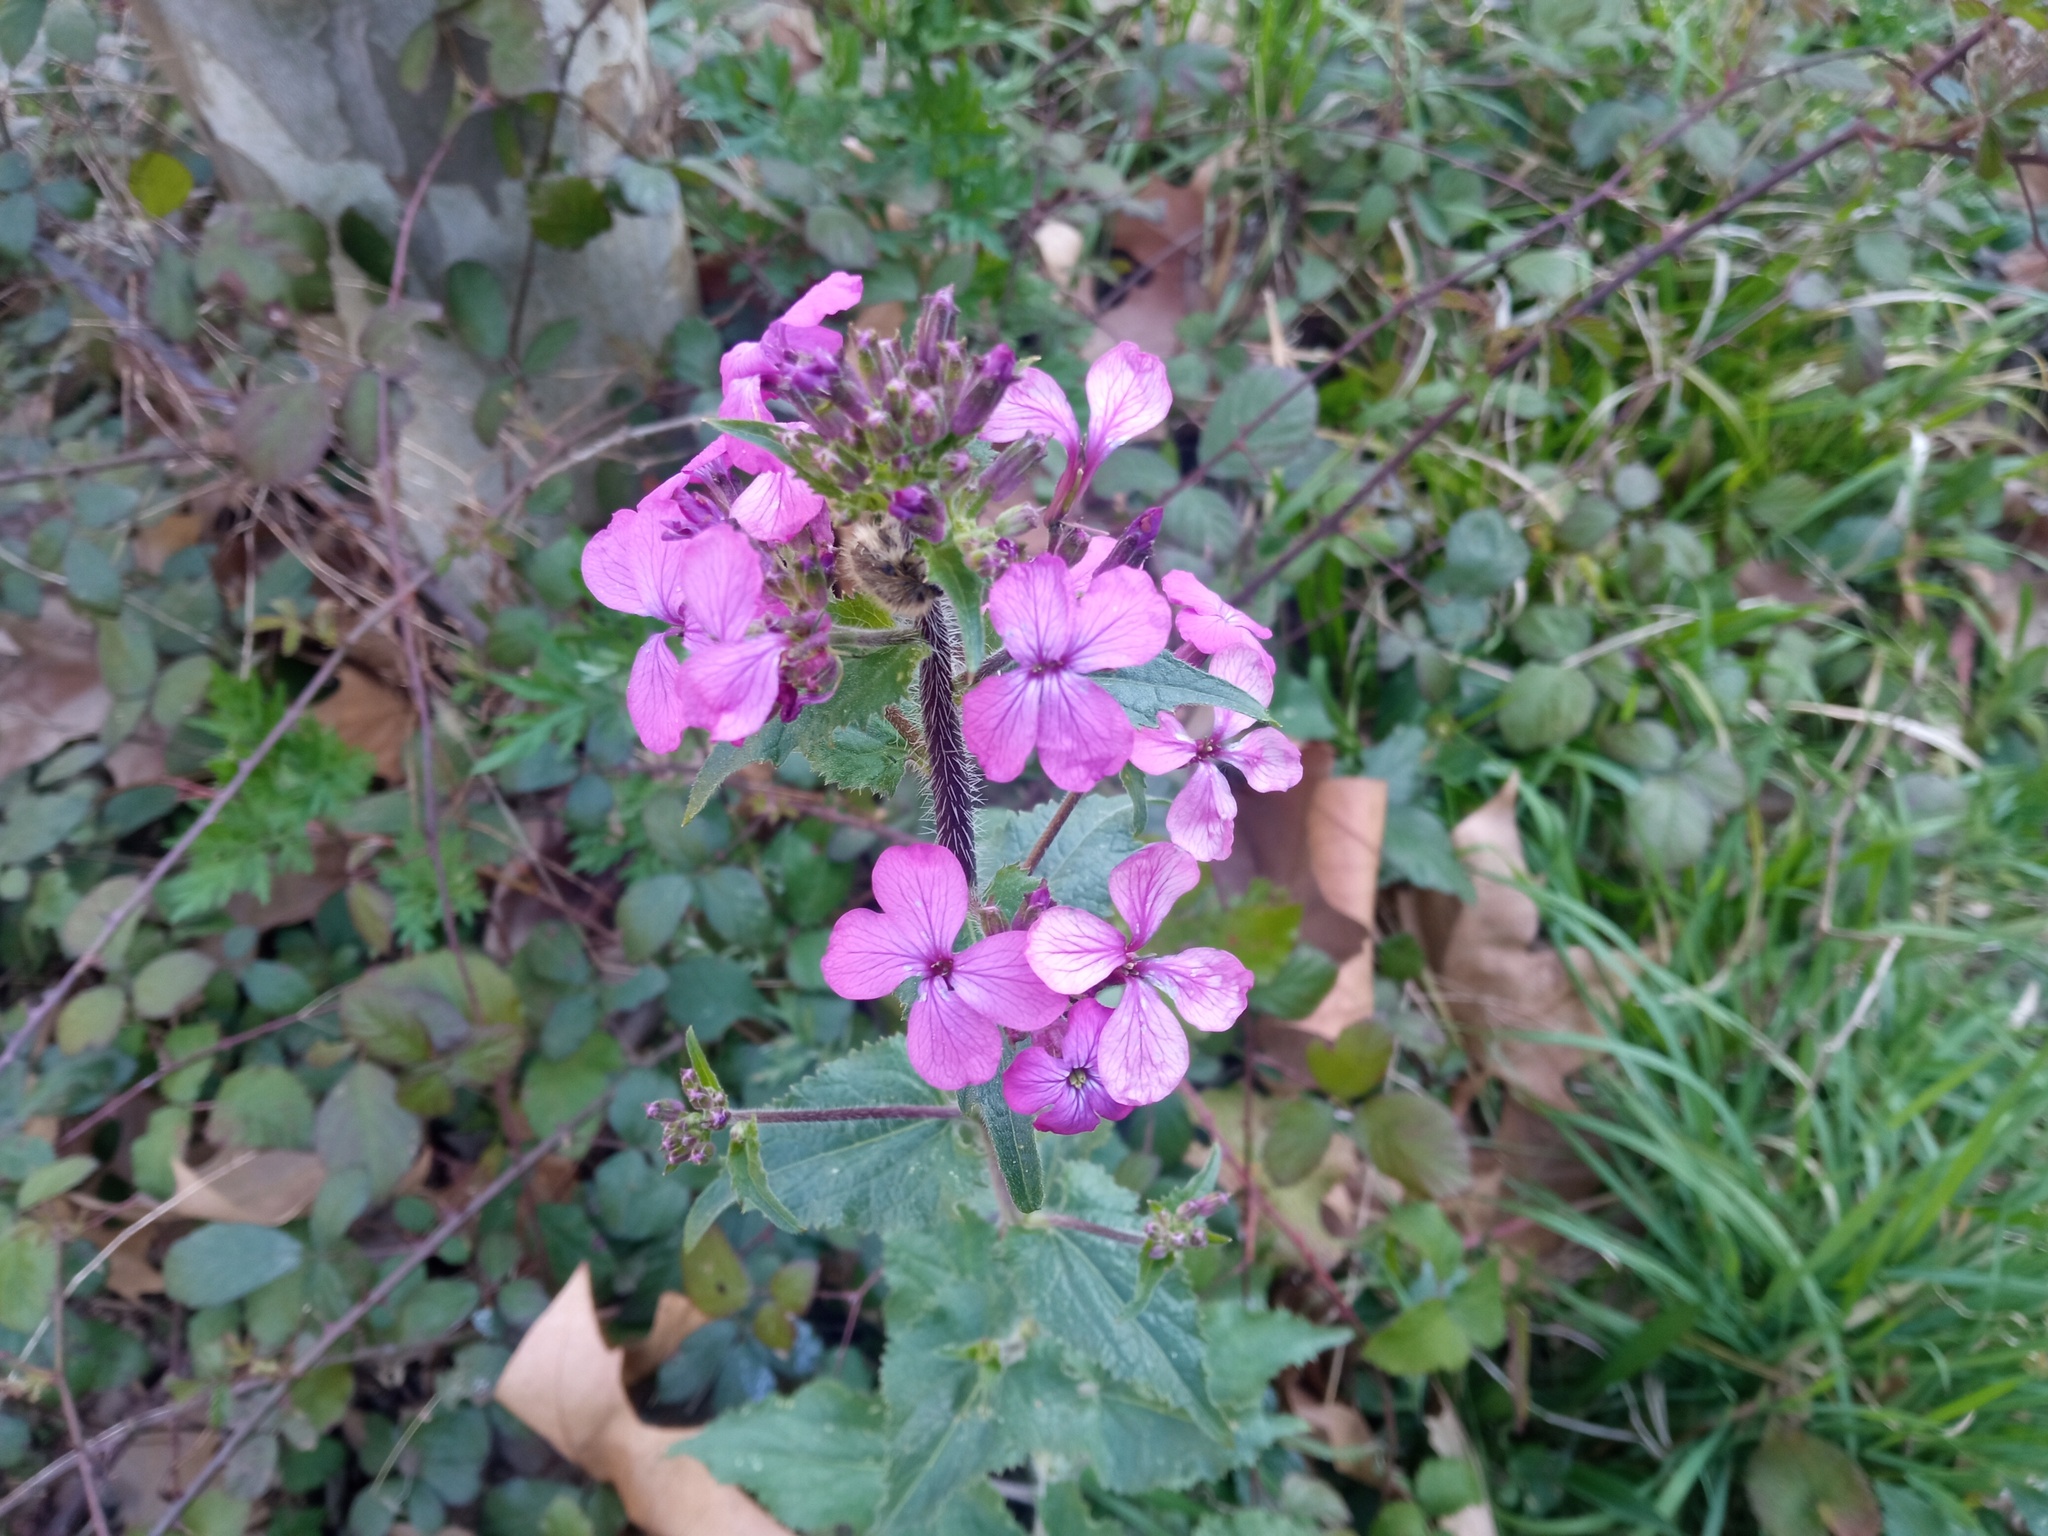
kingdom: Plantae
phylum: Tracheophyta
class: Magnoliopsida
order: Brassicales
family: Brassicaceae
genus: Lunaria
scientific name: Lunaria annua
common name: Honesty
